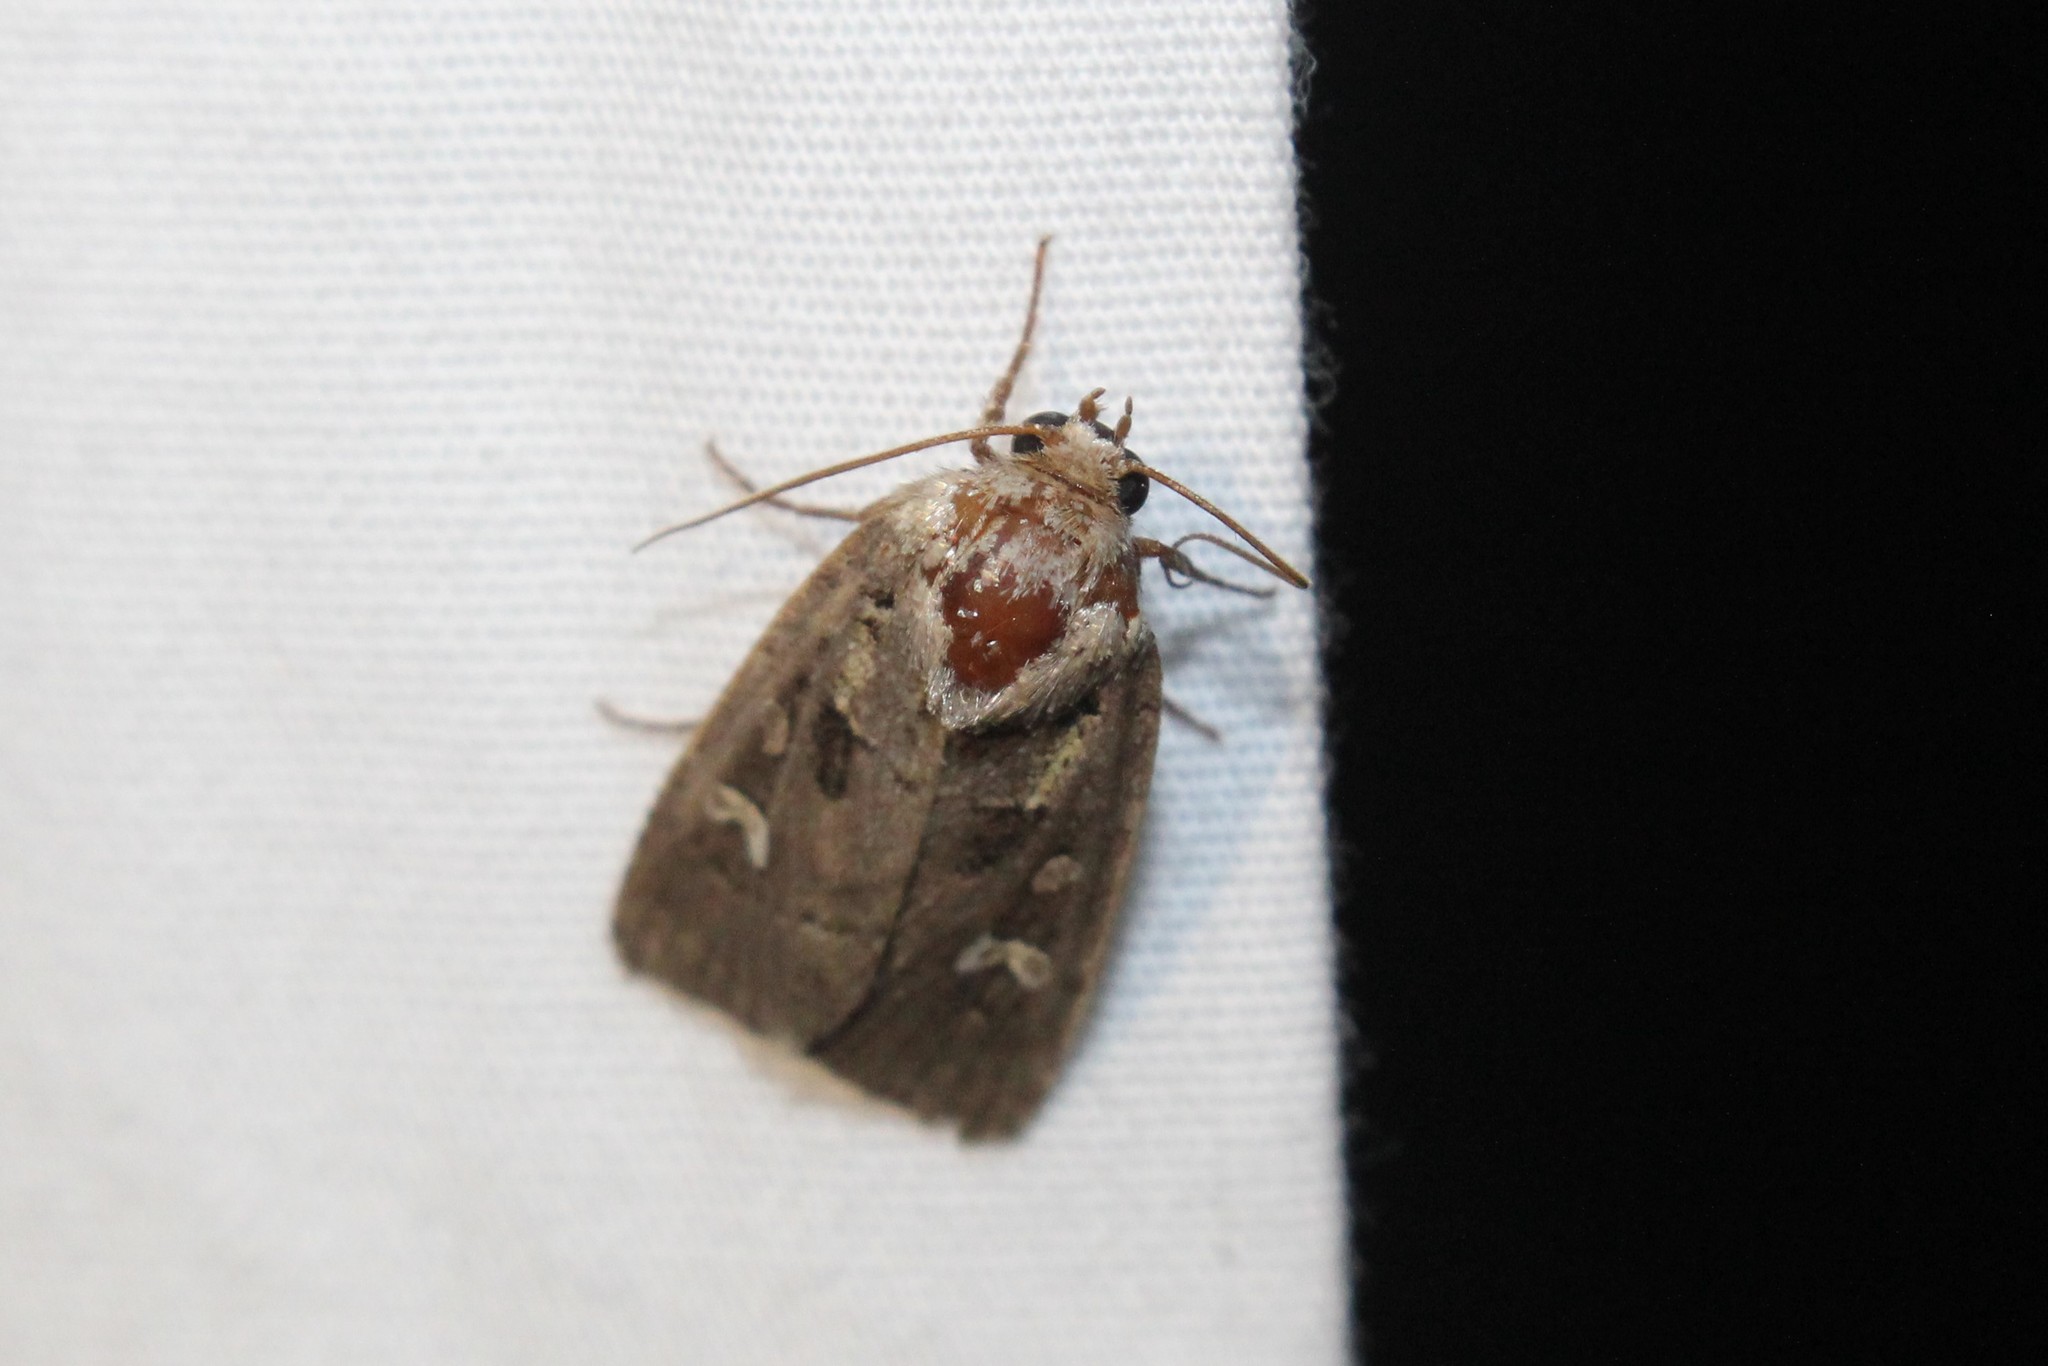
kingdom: Animalia
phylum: Arthropoda
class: Insecta
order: Lepidoptera
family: Noctuidae
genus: Lacinipolia
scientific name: Lacinipolia renigera
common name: Kidney-spotted minor
